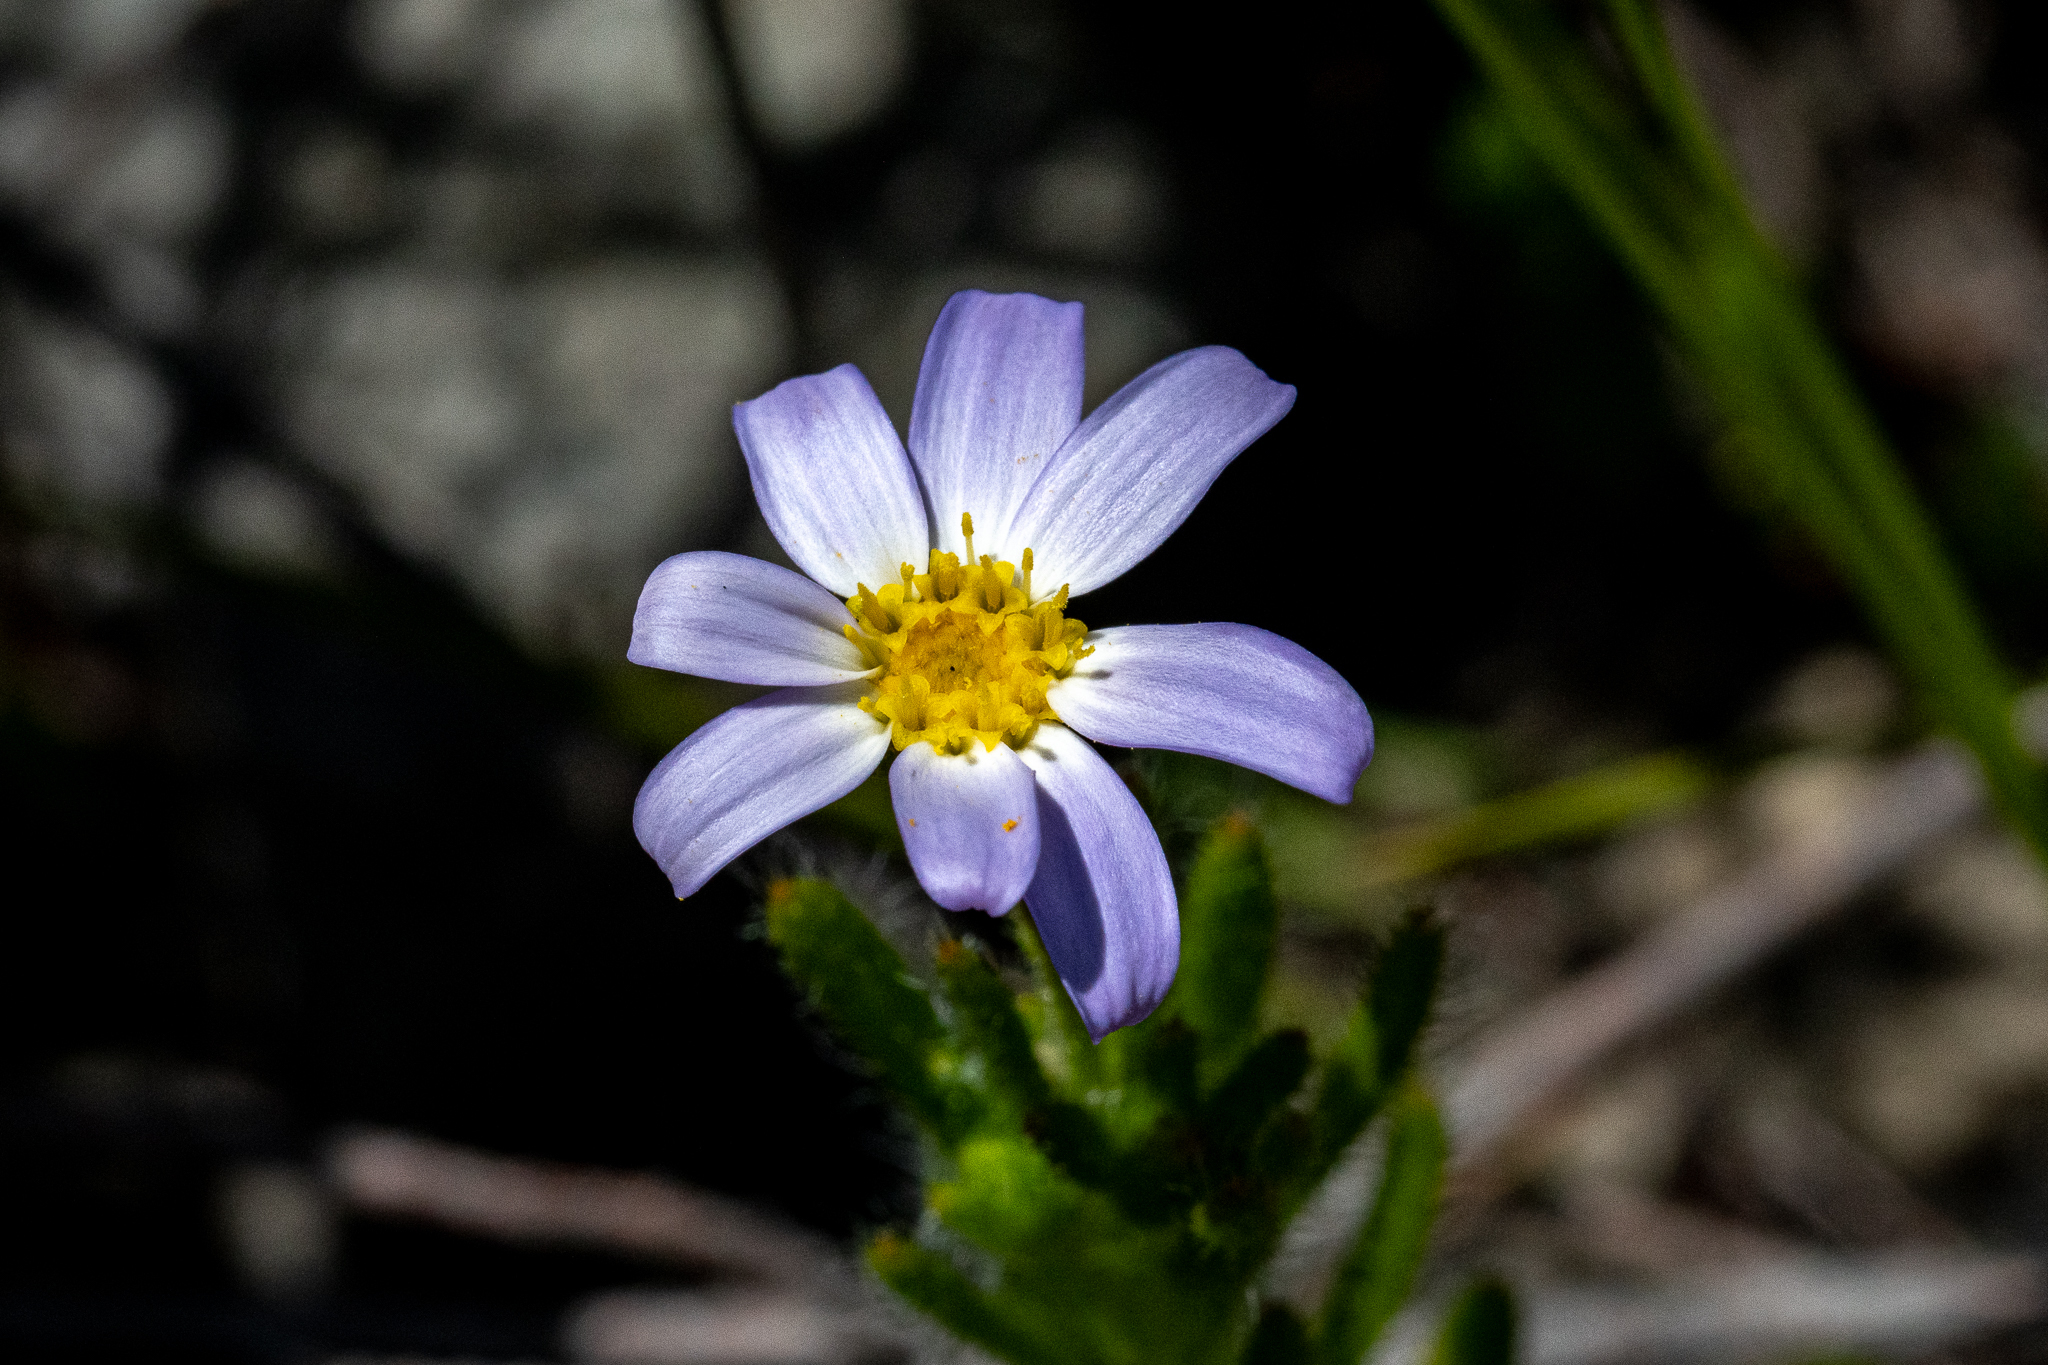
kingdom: Plantae
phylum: Tracheophyta
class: Magnoliopsida
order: Asterales
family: Asteraceae
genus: Zyrphelis
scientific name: Zyrphelis foliosa
